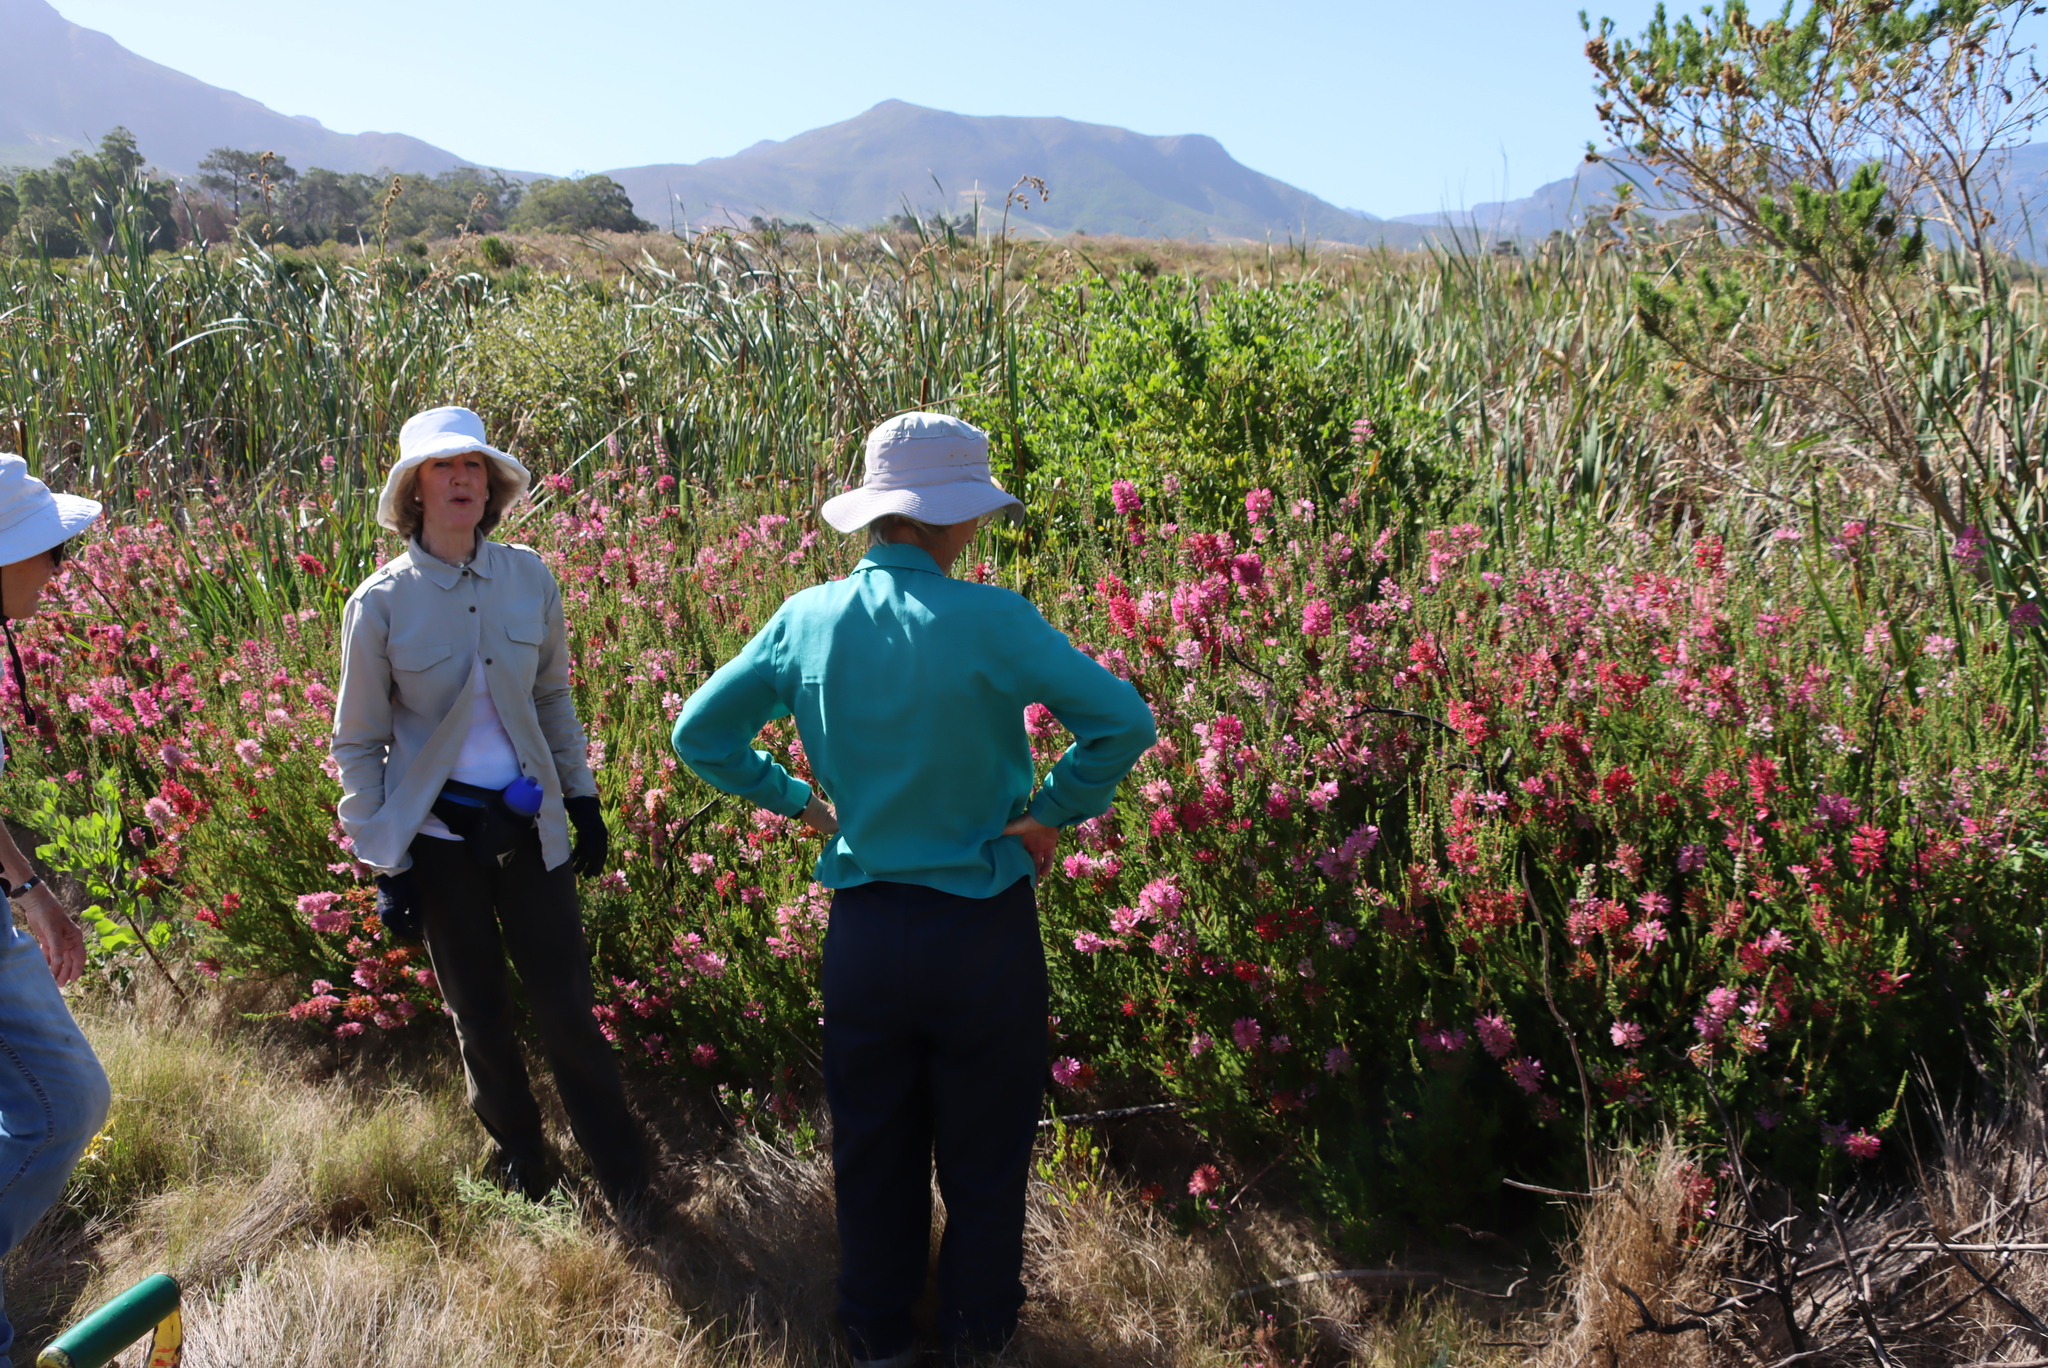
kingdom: Plantae
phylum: Tracheophyta
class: Magnoliopsida
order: Ericales
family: Ericaceae
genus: Erica
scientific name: Erica verticillata
